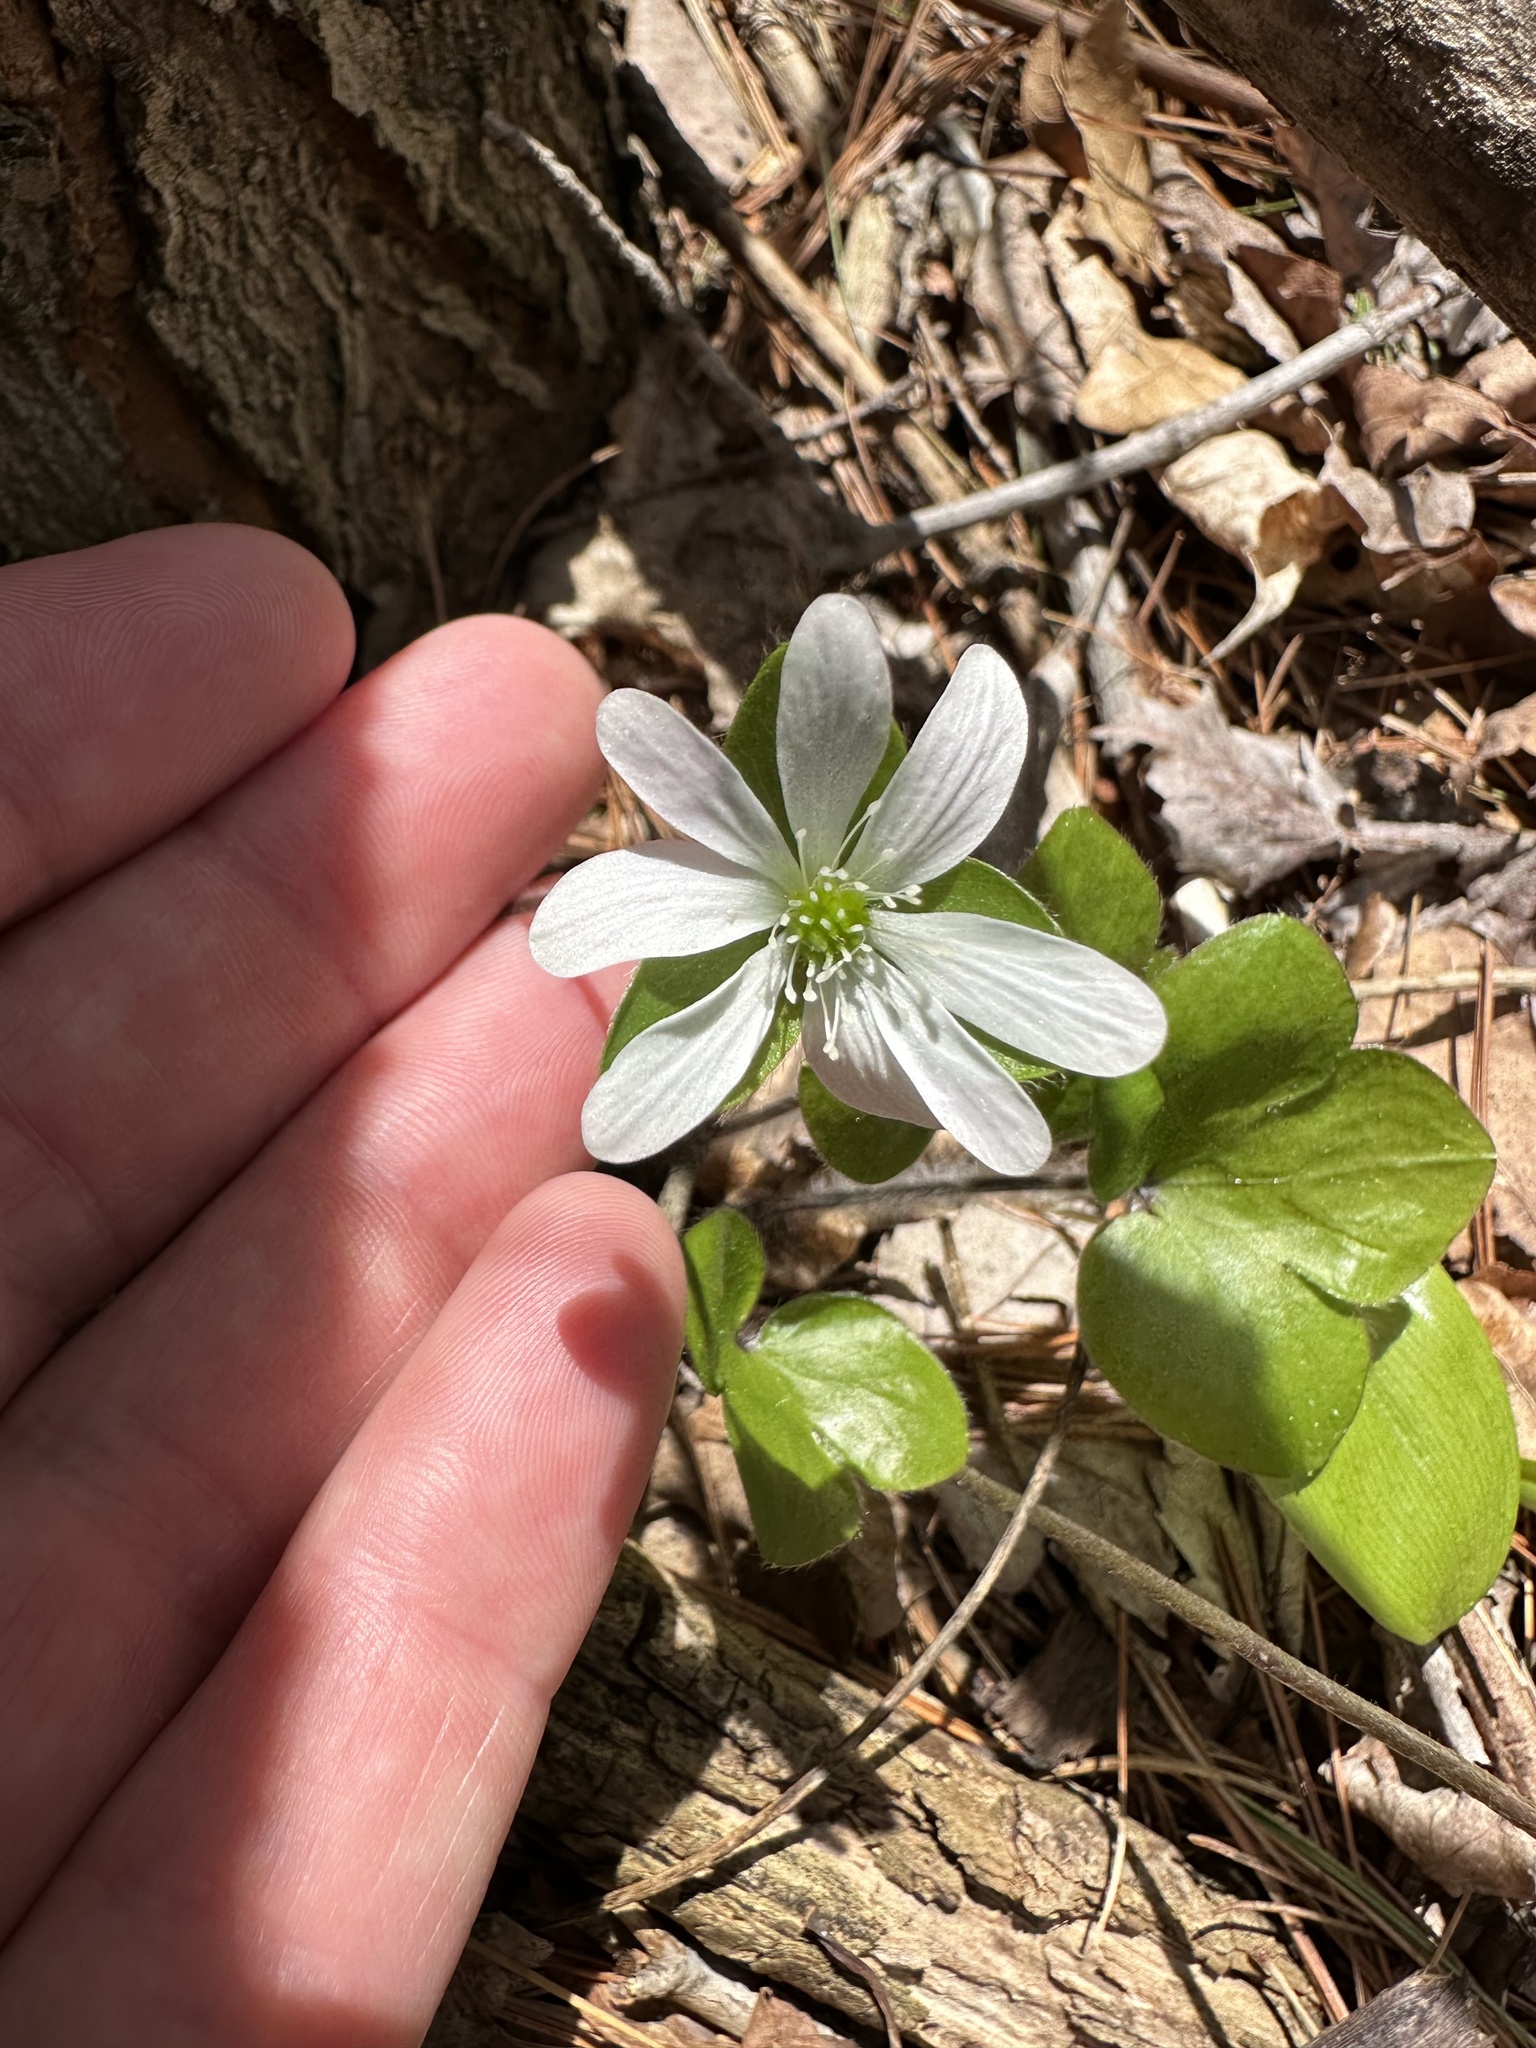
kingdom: Plantae
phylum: Tracheophyta
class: Magnoliopsida
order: Ranunculales
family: Ranunculaceae
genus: Hepatica
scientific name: Hepatica americana
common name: American hepatica
